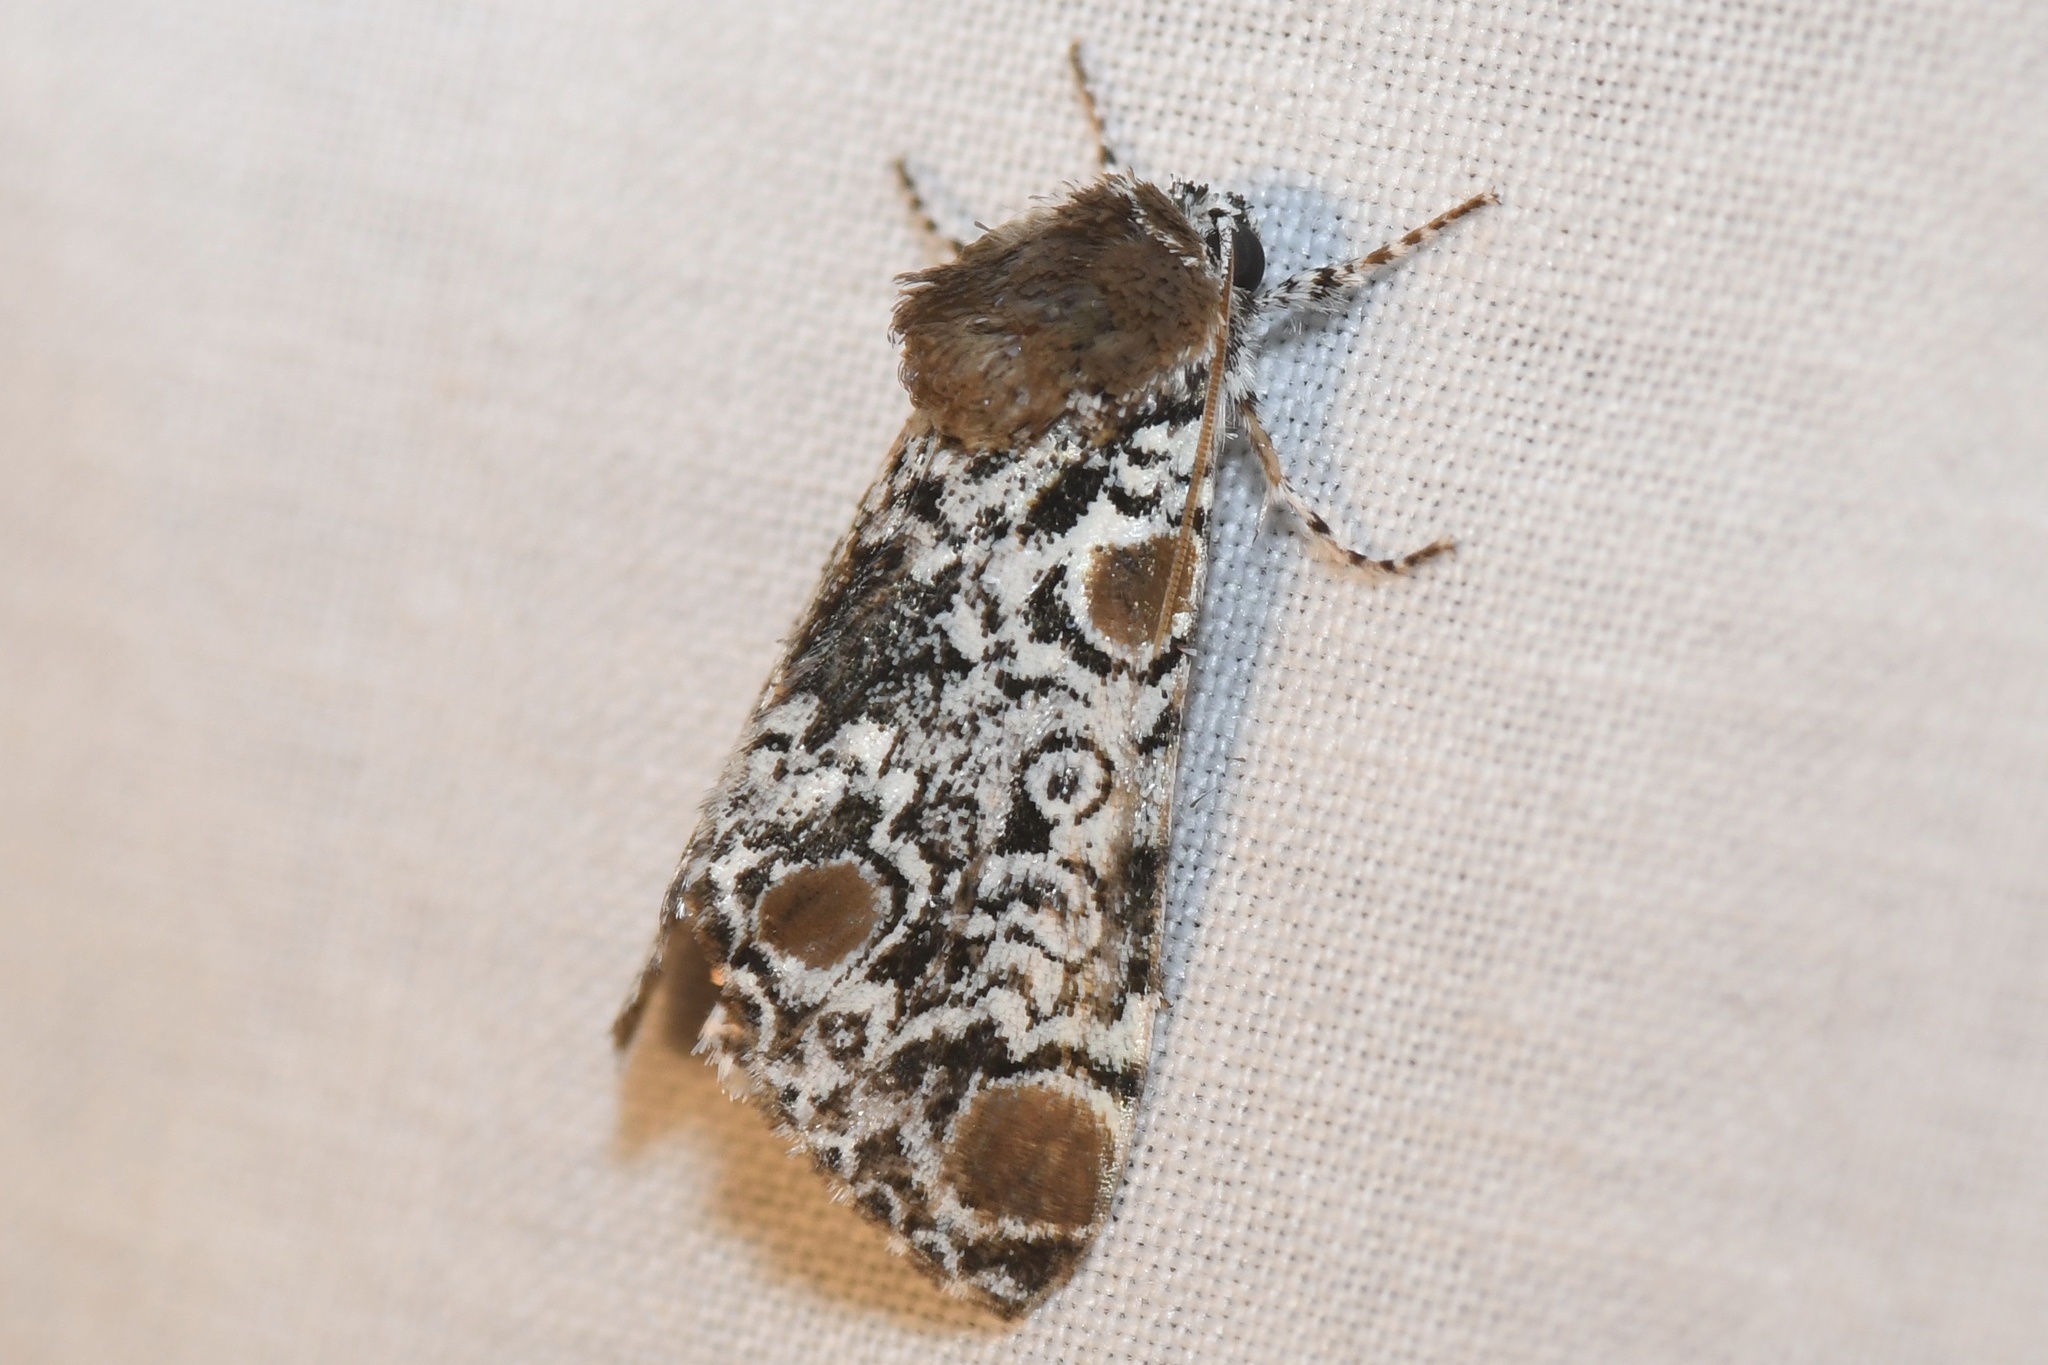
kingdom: Animalia
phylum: Arthropoda
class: Insecta
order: Lepidoptera
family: Noctuidae
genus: Harrisimemna
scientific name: Harrisimemna trisignata
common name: Harris threespot
